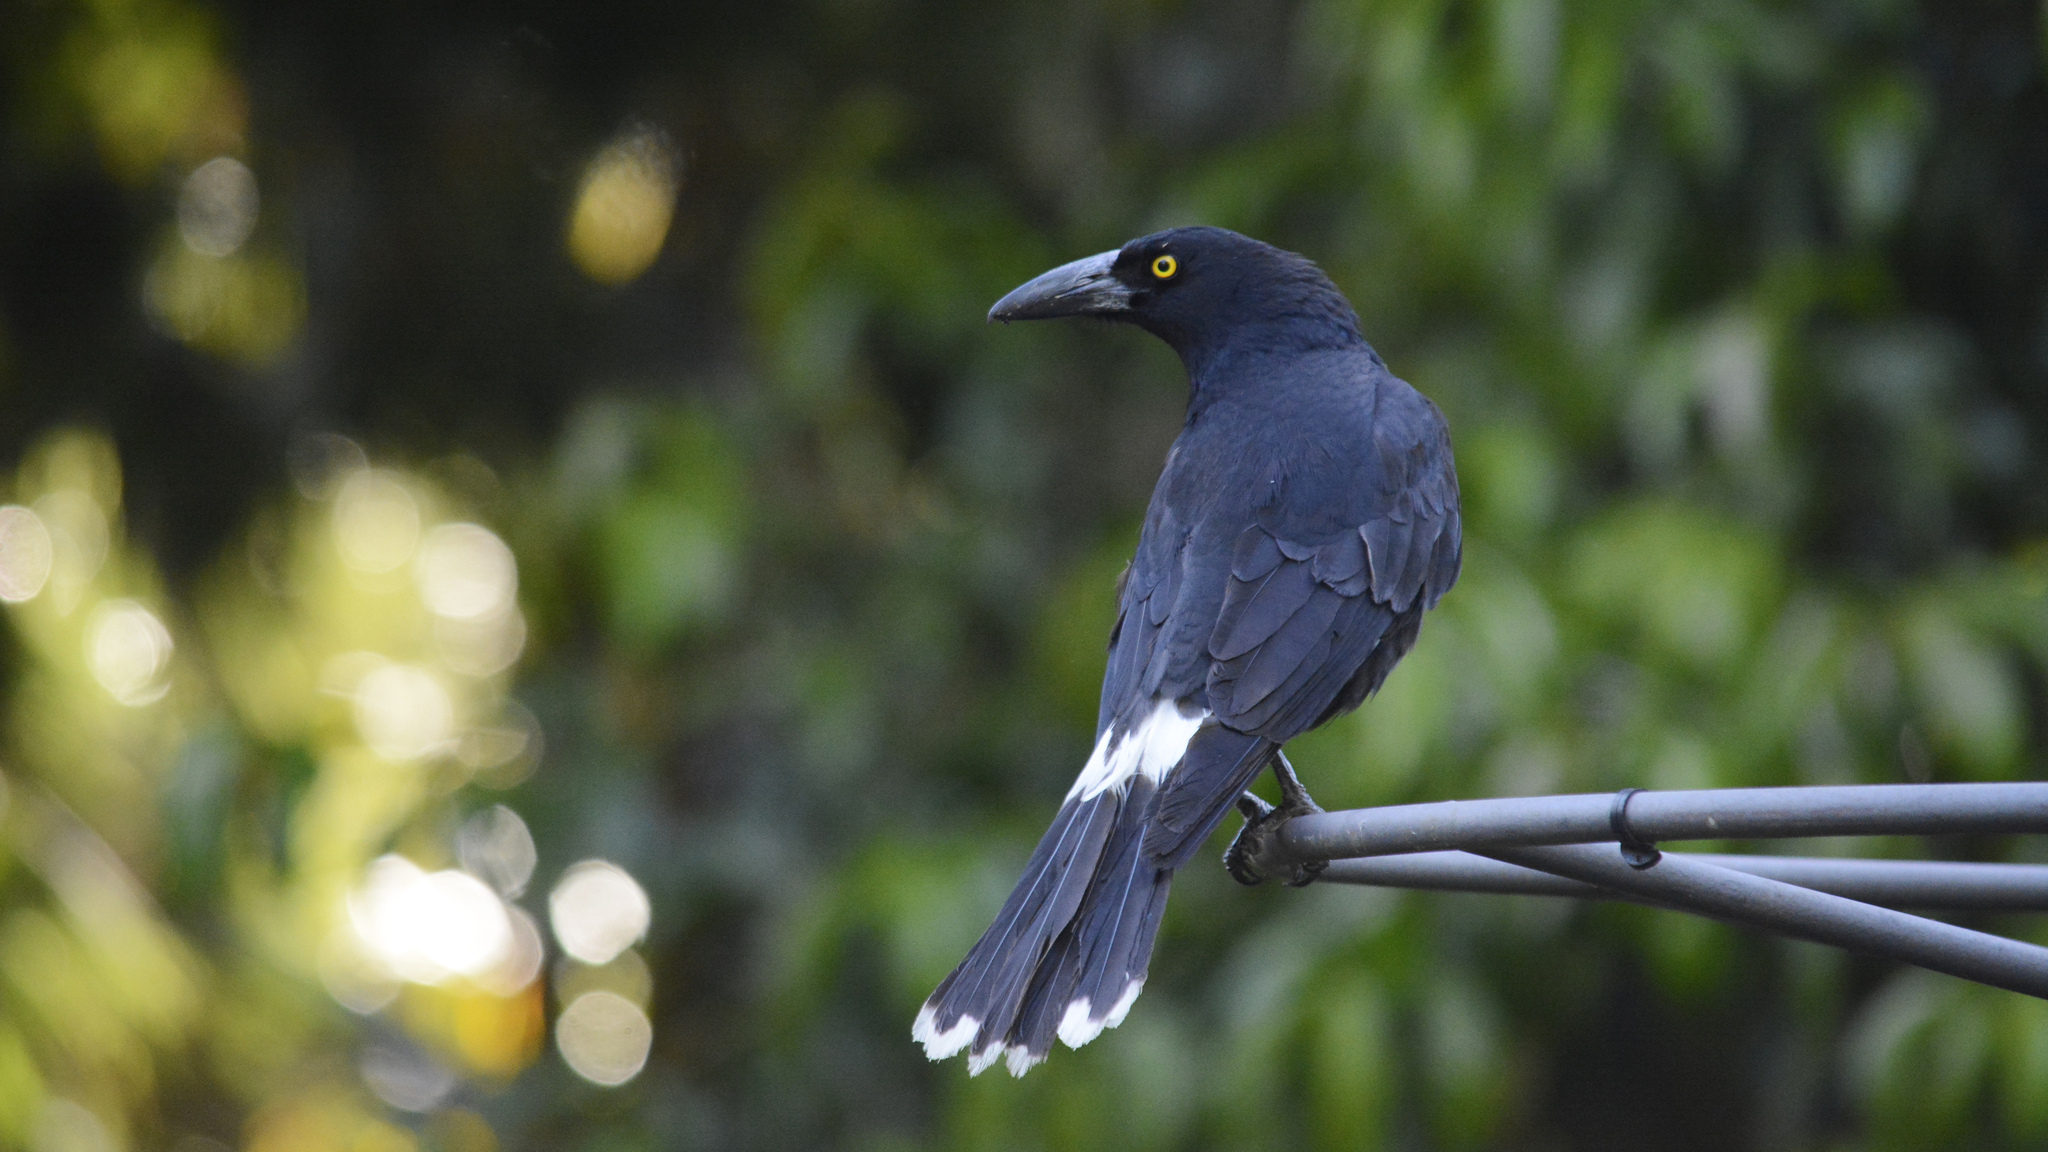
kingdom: Animalia
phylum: Chordata
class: Aves
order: Passeriformes
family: Cracticidae
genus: Strepera
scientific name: Strepera graculina
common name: Pied currawong
